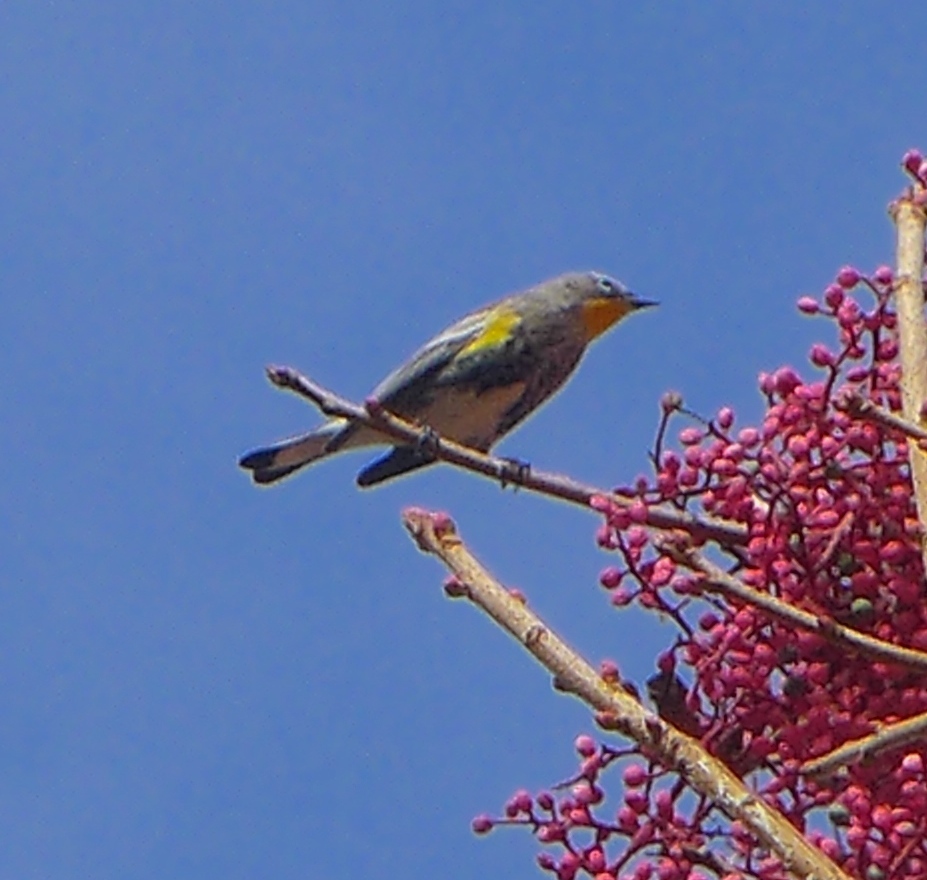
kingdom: Animalia
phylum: Chordata
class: Aves
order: Passeriformes
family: Parulidae
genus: Setophaga
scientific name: Setophaga coronata
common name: Myrtle warbler
